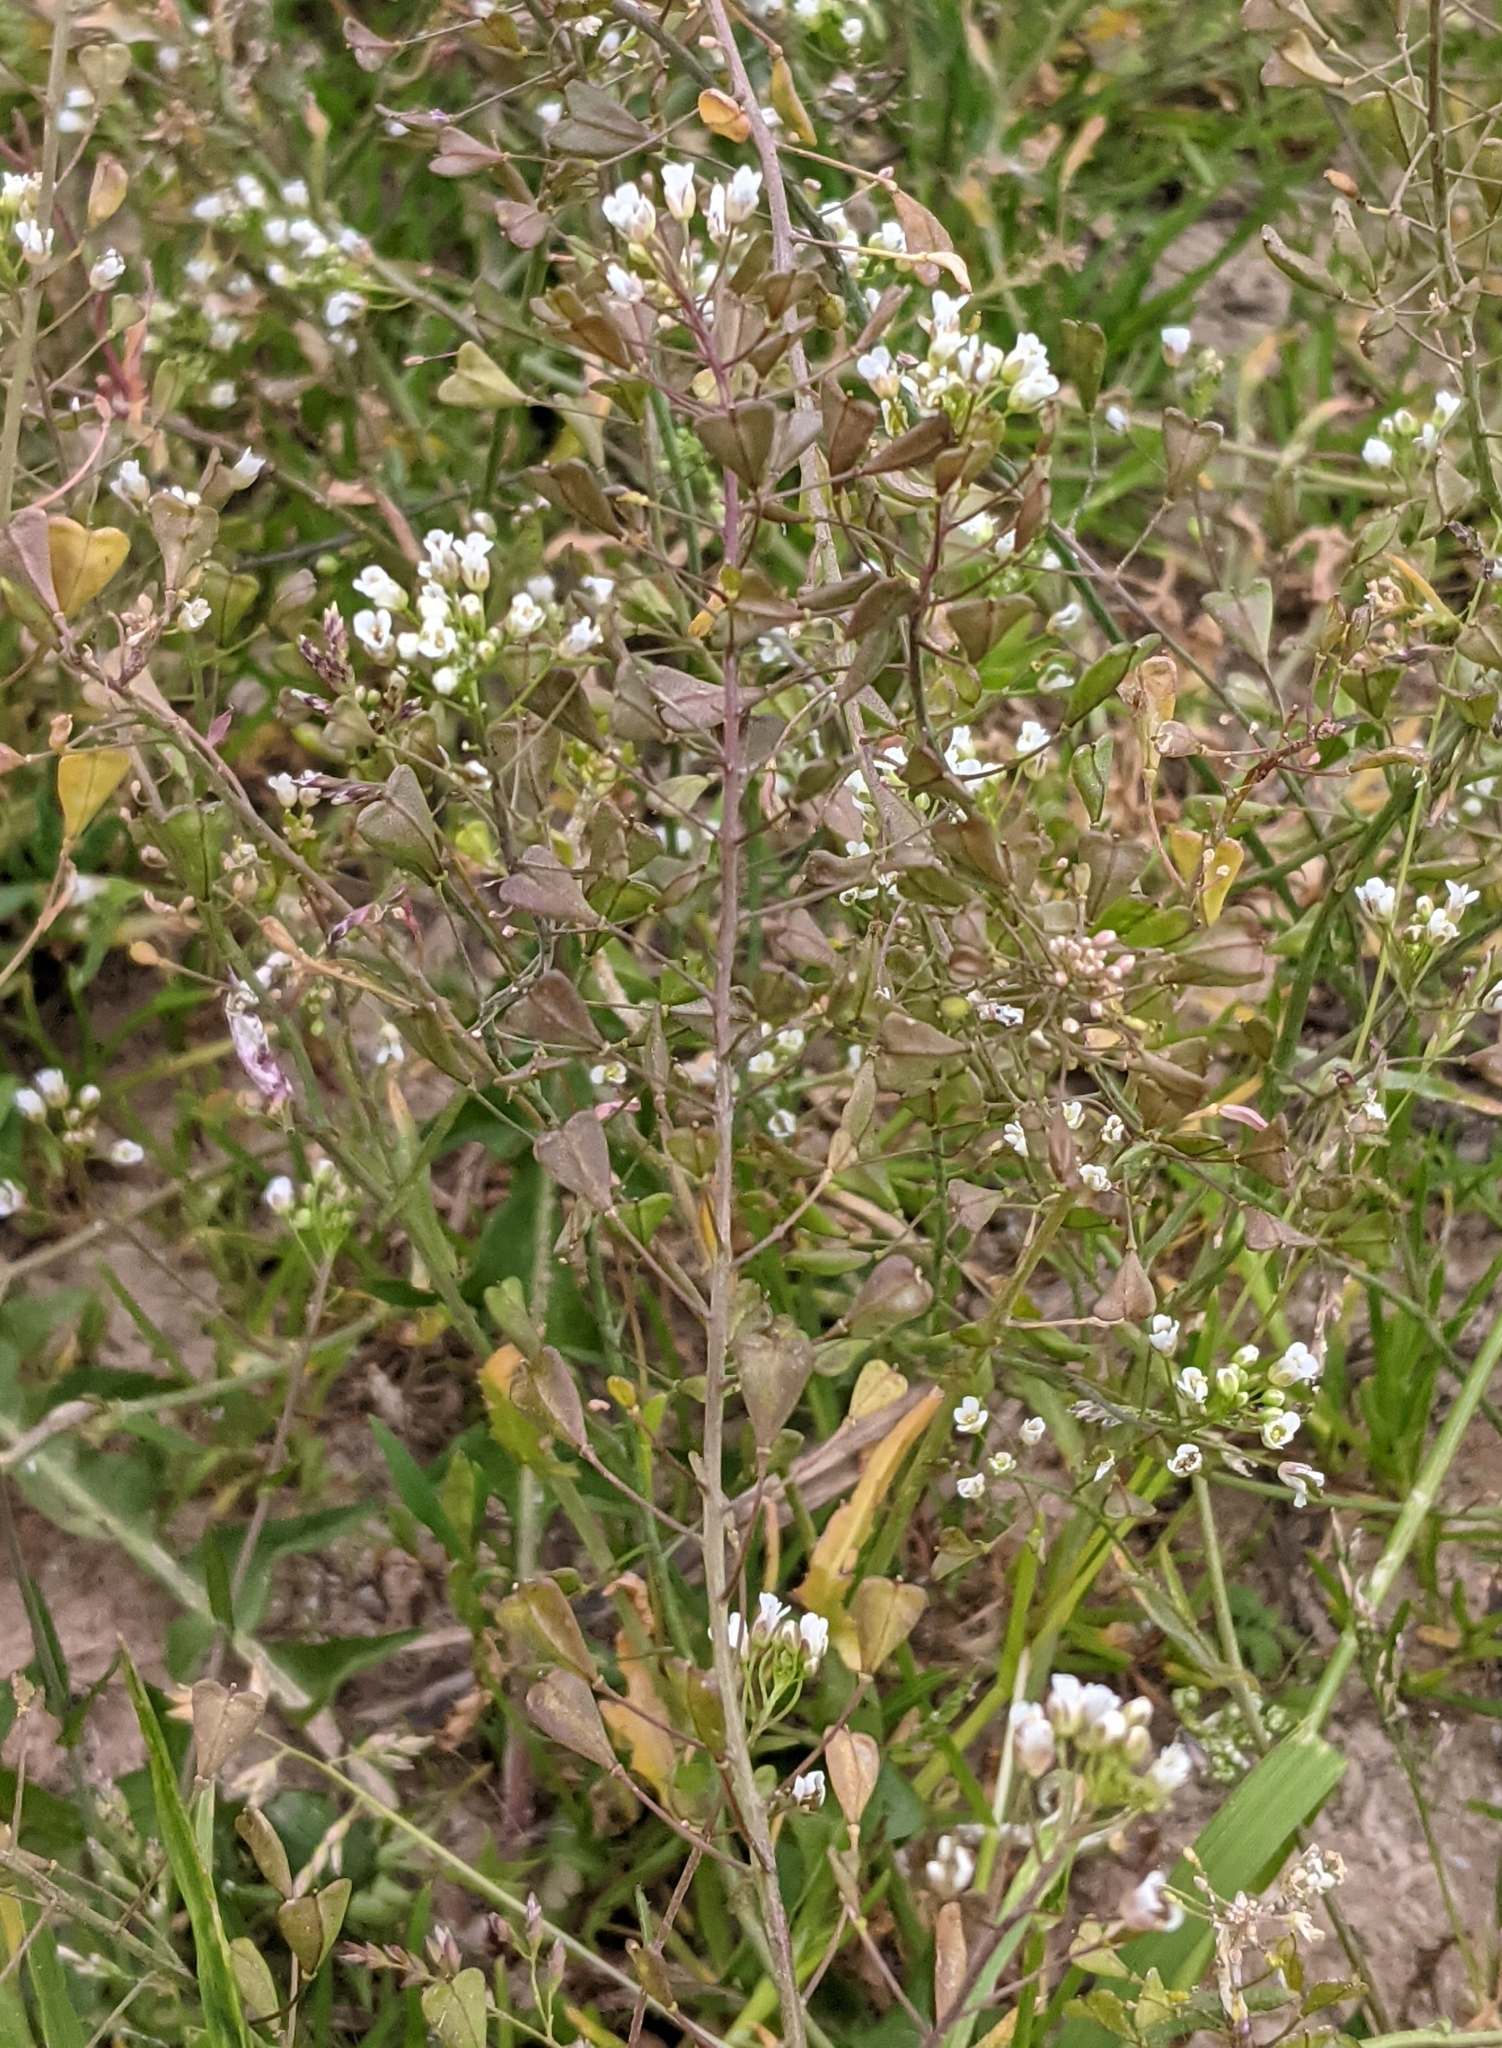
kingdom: Plantae
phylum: Tracheophyta
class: Magnoliopsida
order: Brassicales
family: Brassicaceae
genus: Capsella
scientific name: Capsella bursa-pastoris
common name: Shepherd's purse
